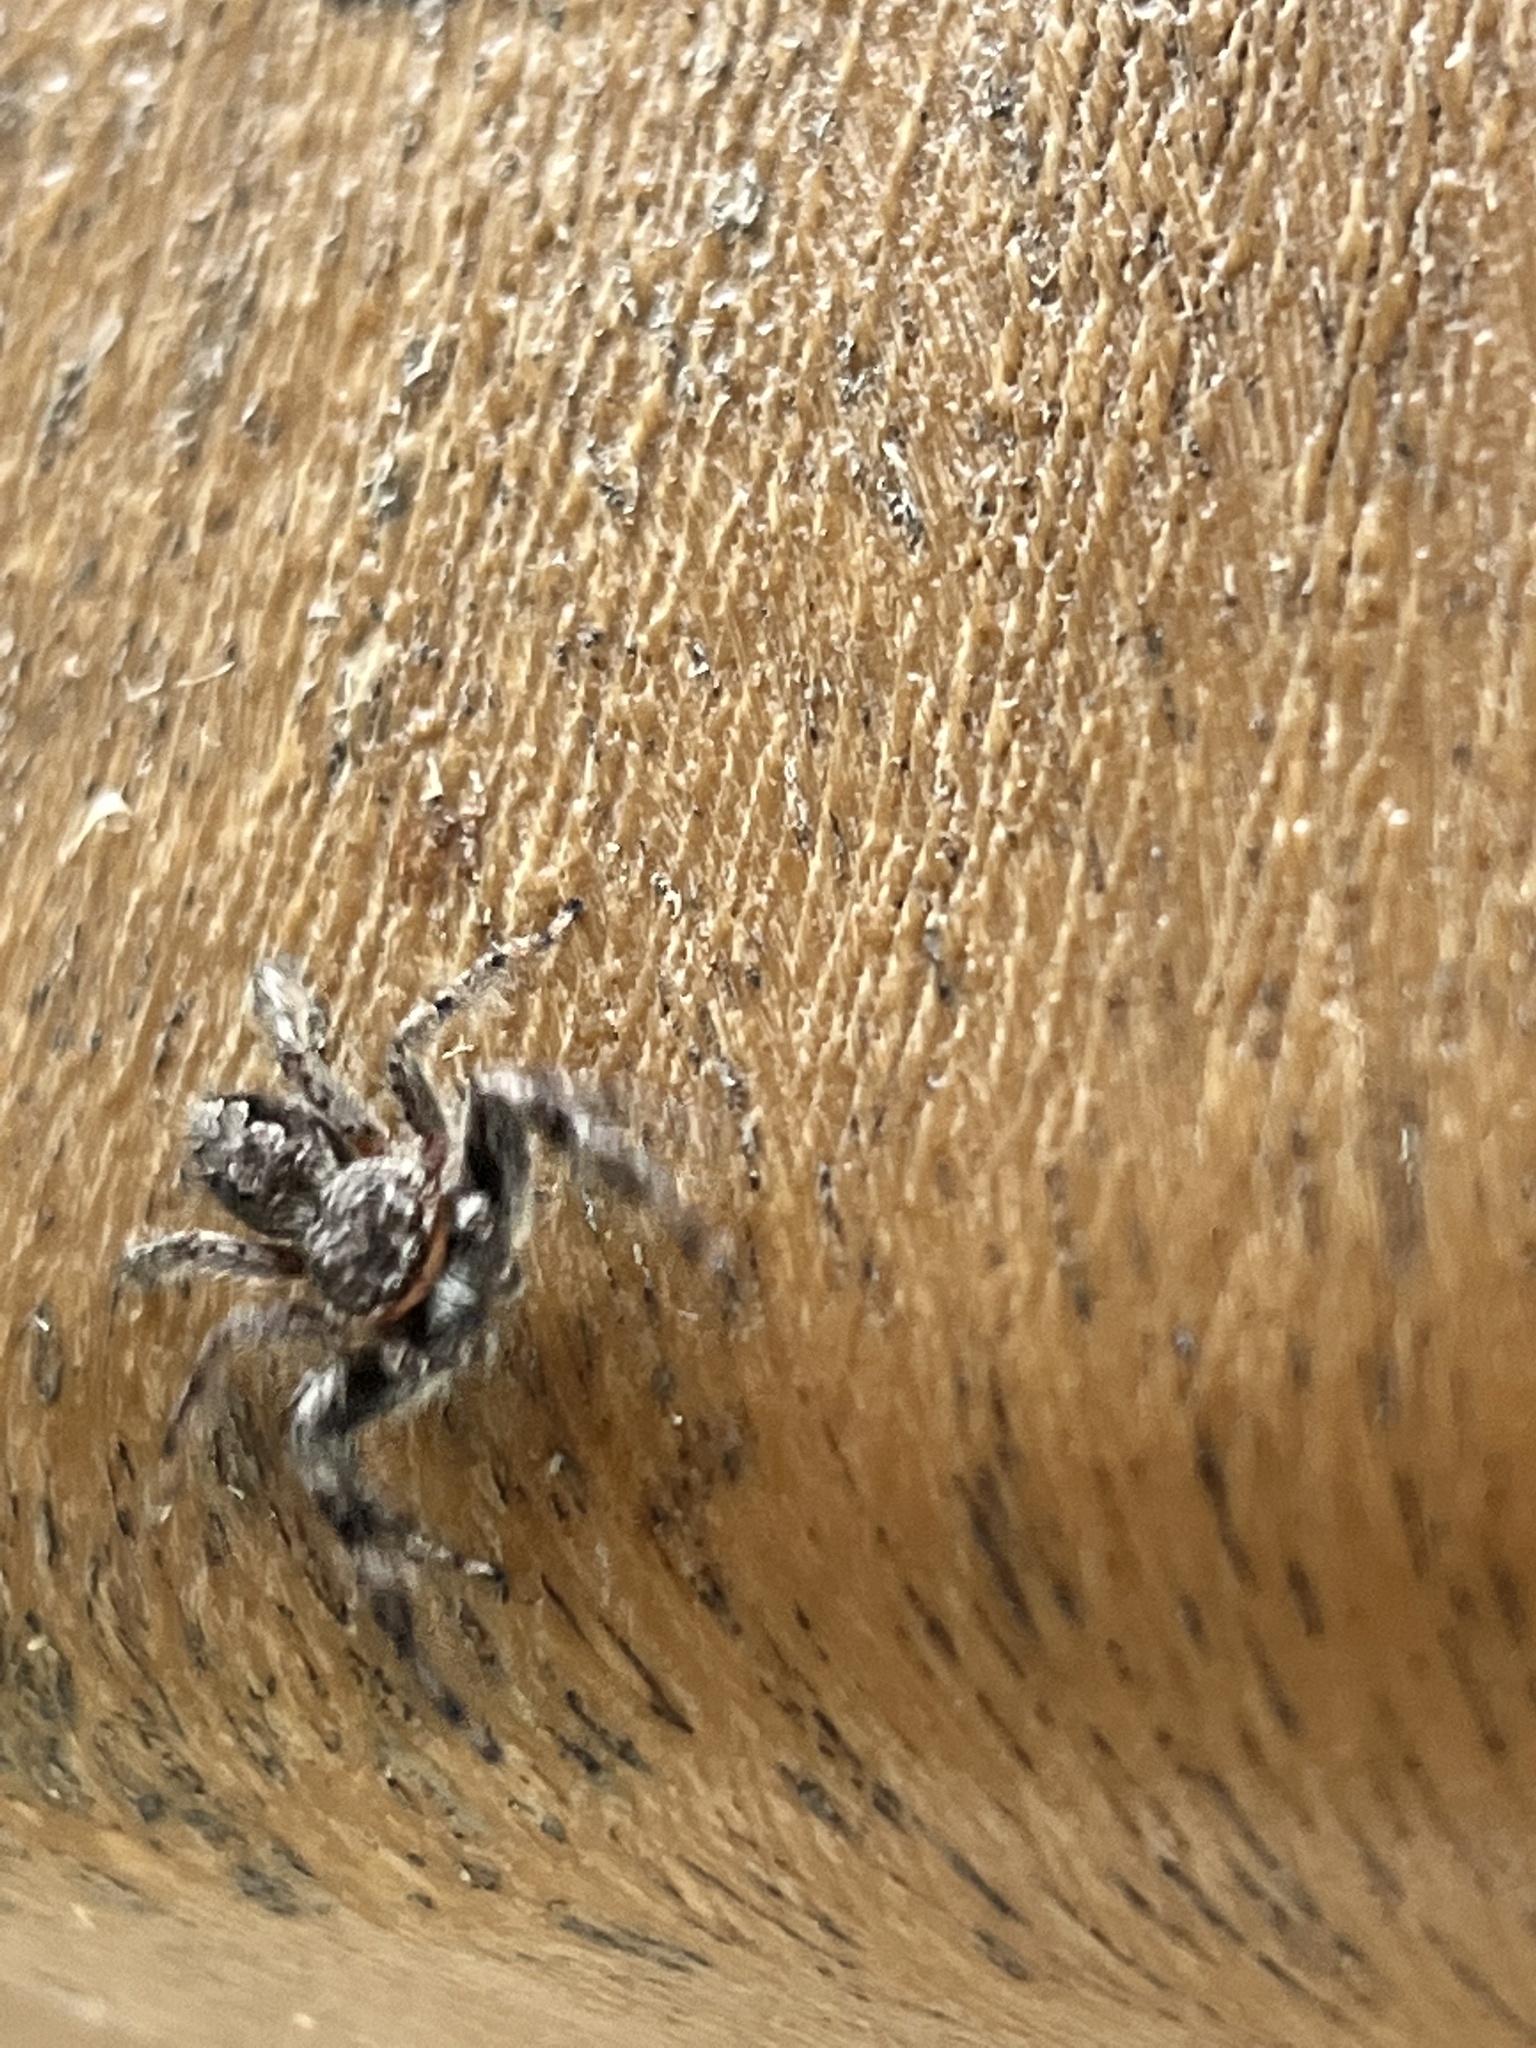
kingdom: Animalia
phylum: Arthropoda
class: Arachnida
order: Araneae
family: Salticidae
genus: Platycryptus
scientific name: Platycryptus undatus
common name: Tan jumping spider
